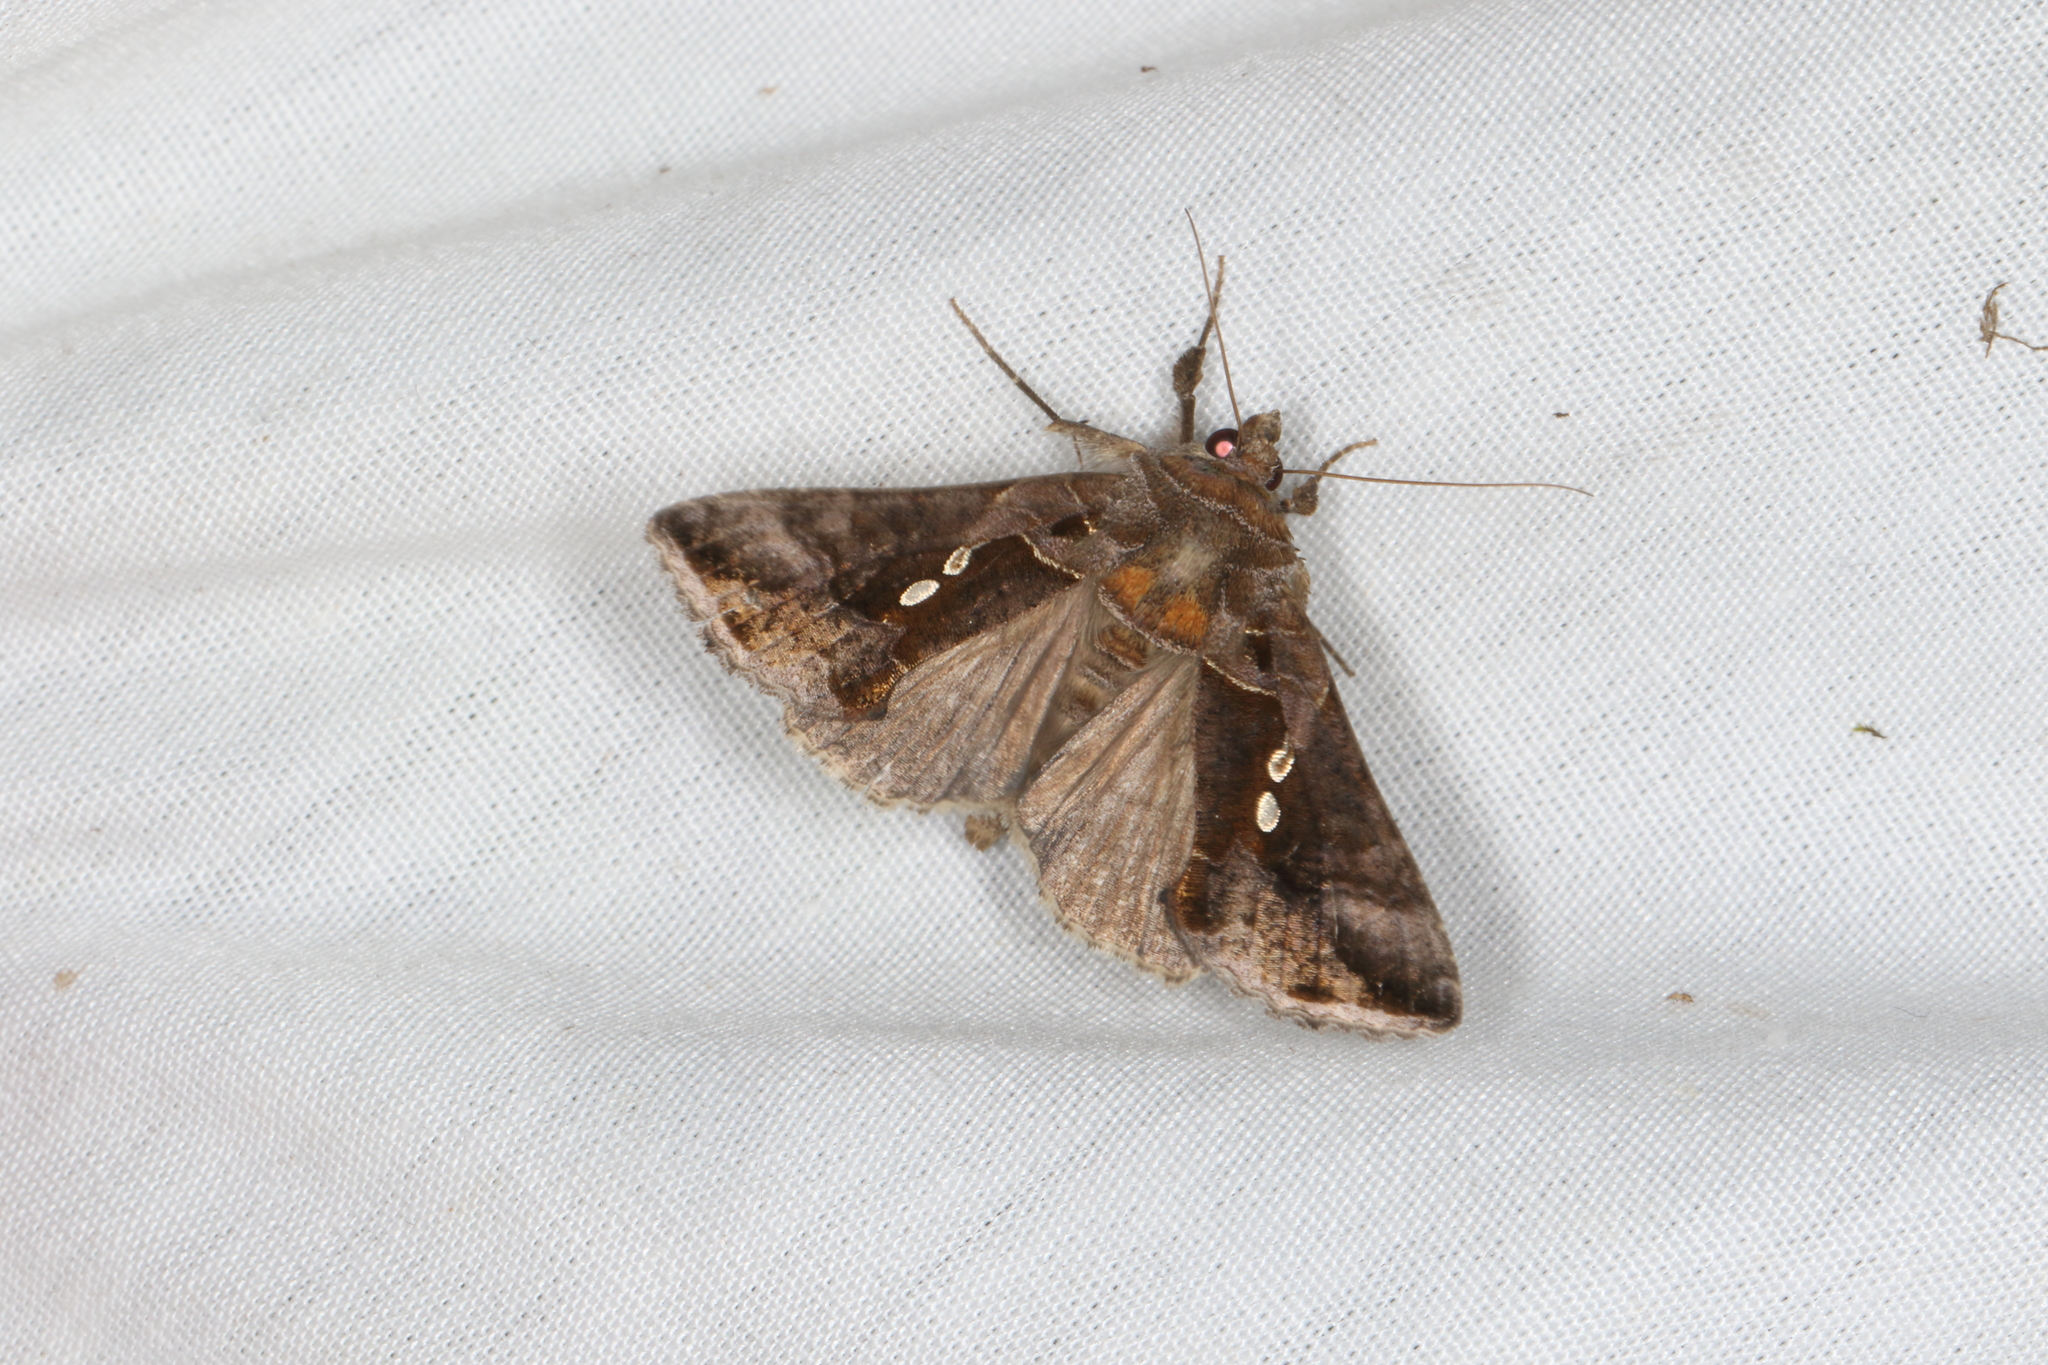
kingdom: Animalia
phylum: Arthropoda
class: Insecta
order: Lepidoptera
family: Noctuidae
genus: Chrysodeixis
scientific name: Chrysodeixis eriosoma
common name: Green garden looper
